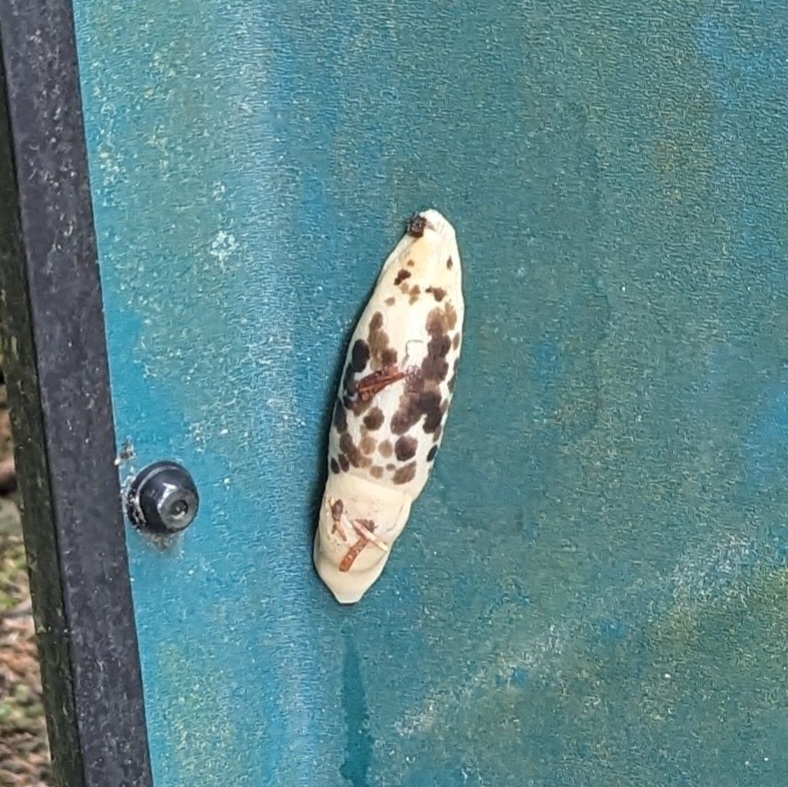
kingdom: Animalia
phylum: Mollusca
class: Gastropoda
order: Stylommatophora
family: Ariolimacidae
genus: Ariolimax
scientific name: Ariolimax columbianus
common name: Pacific banana slug
